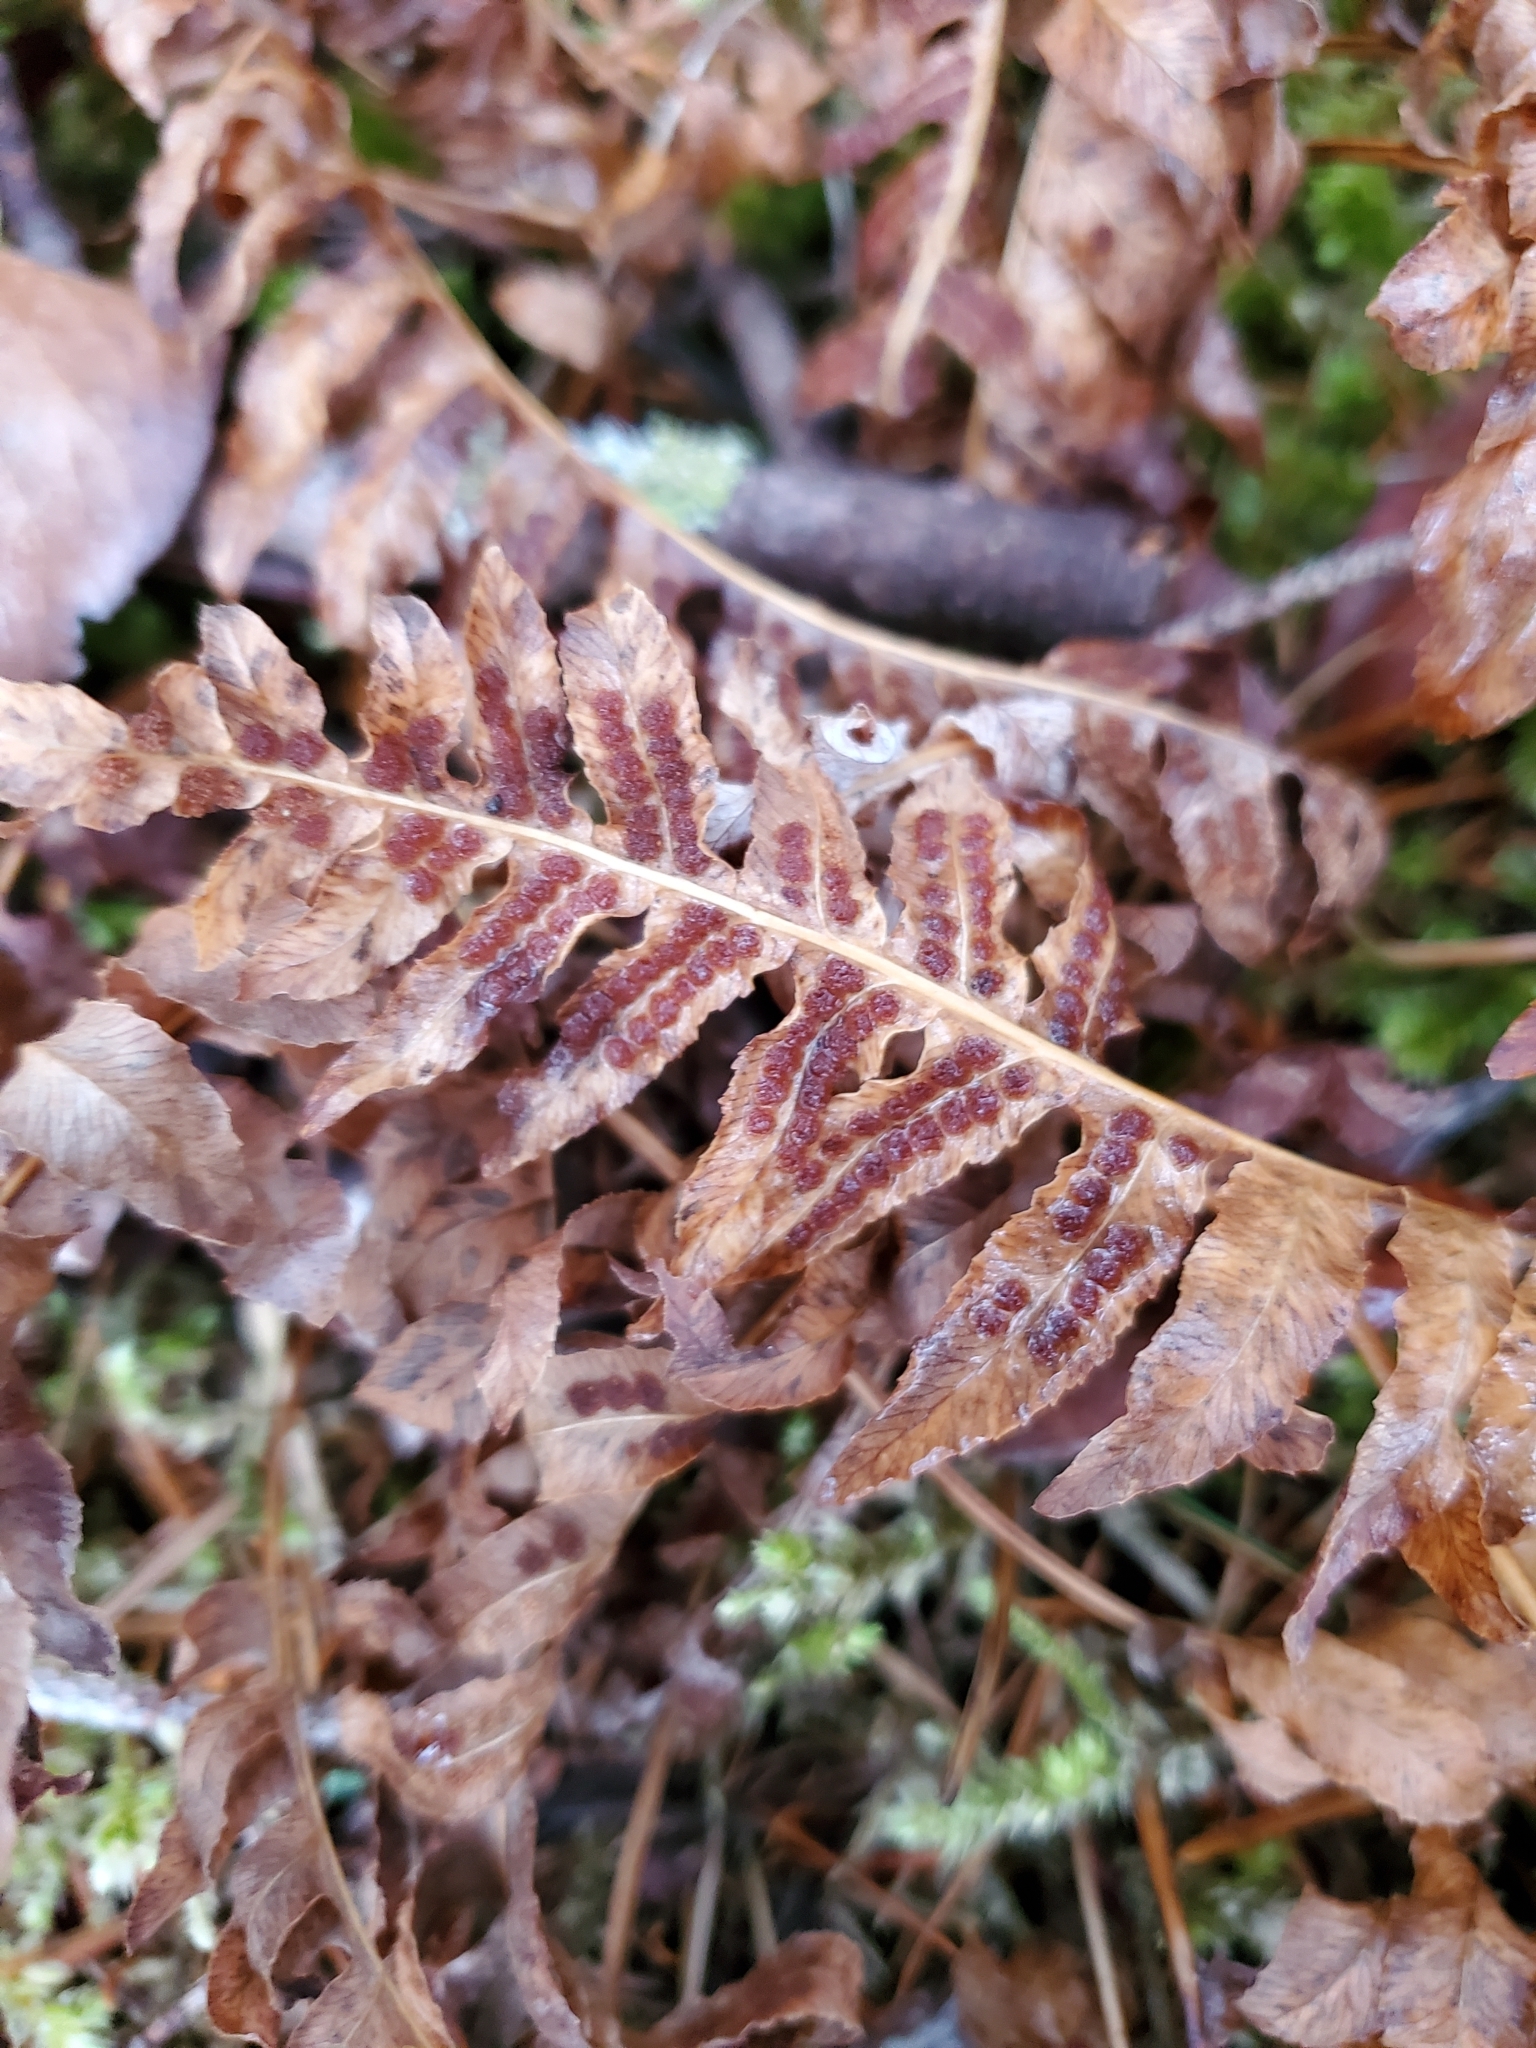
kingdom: Plantae
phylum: Tracheophyta
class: Polypodiopsida
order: Polypodiales
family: Polypodiaceae
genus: Polypodium
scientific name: Polypodium glycyrrhiza
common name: Licorice fern
